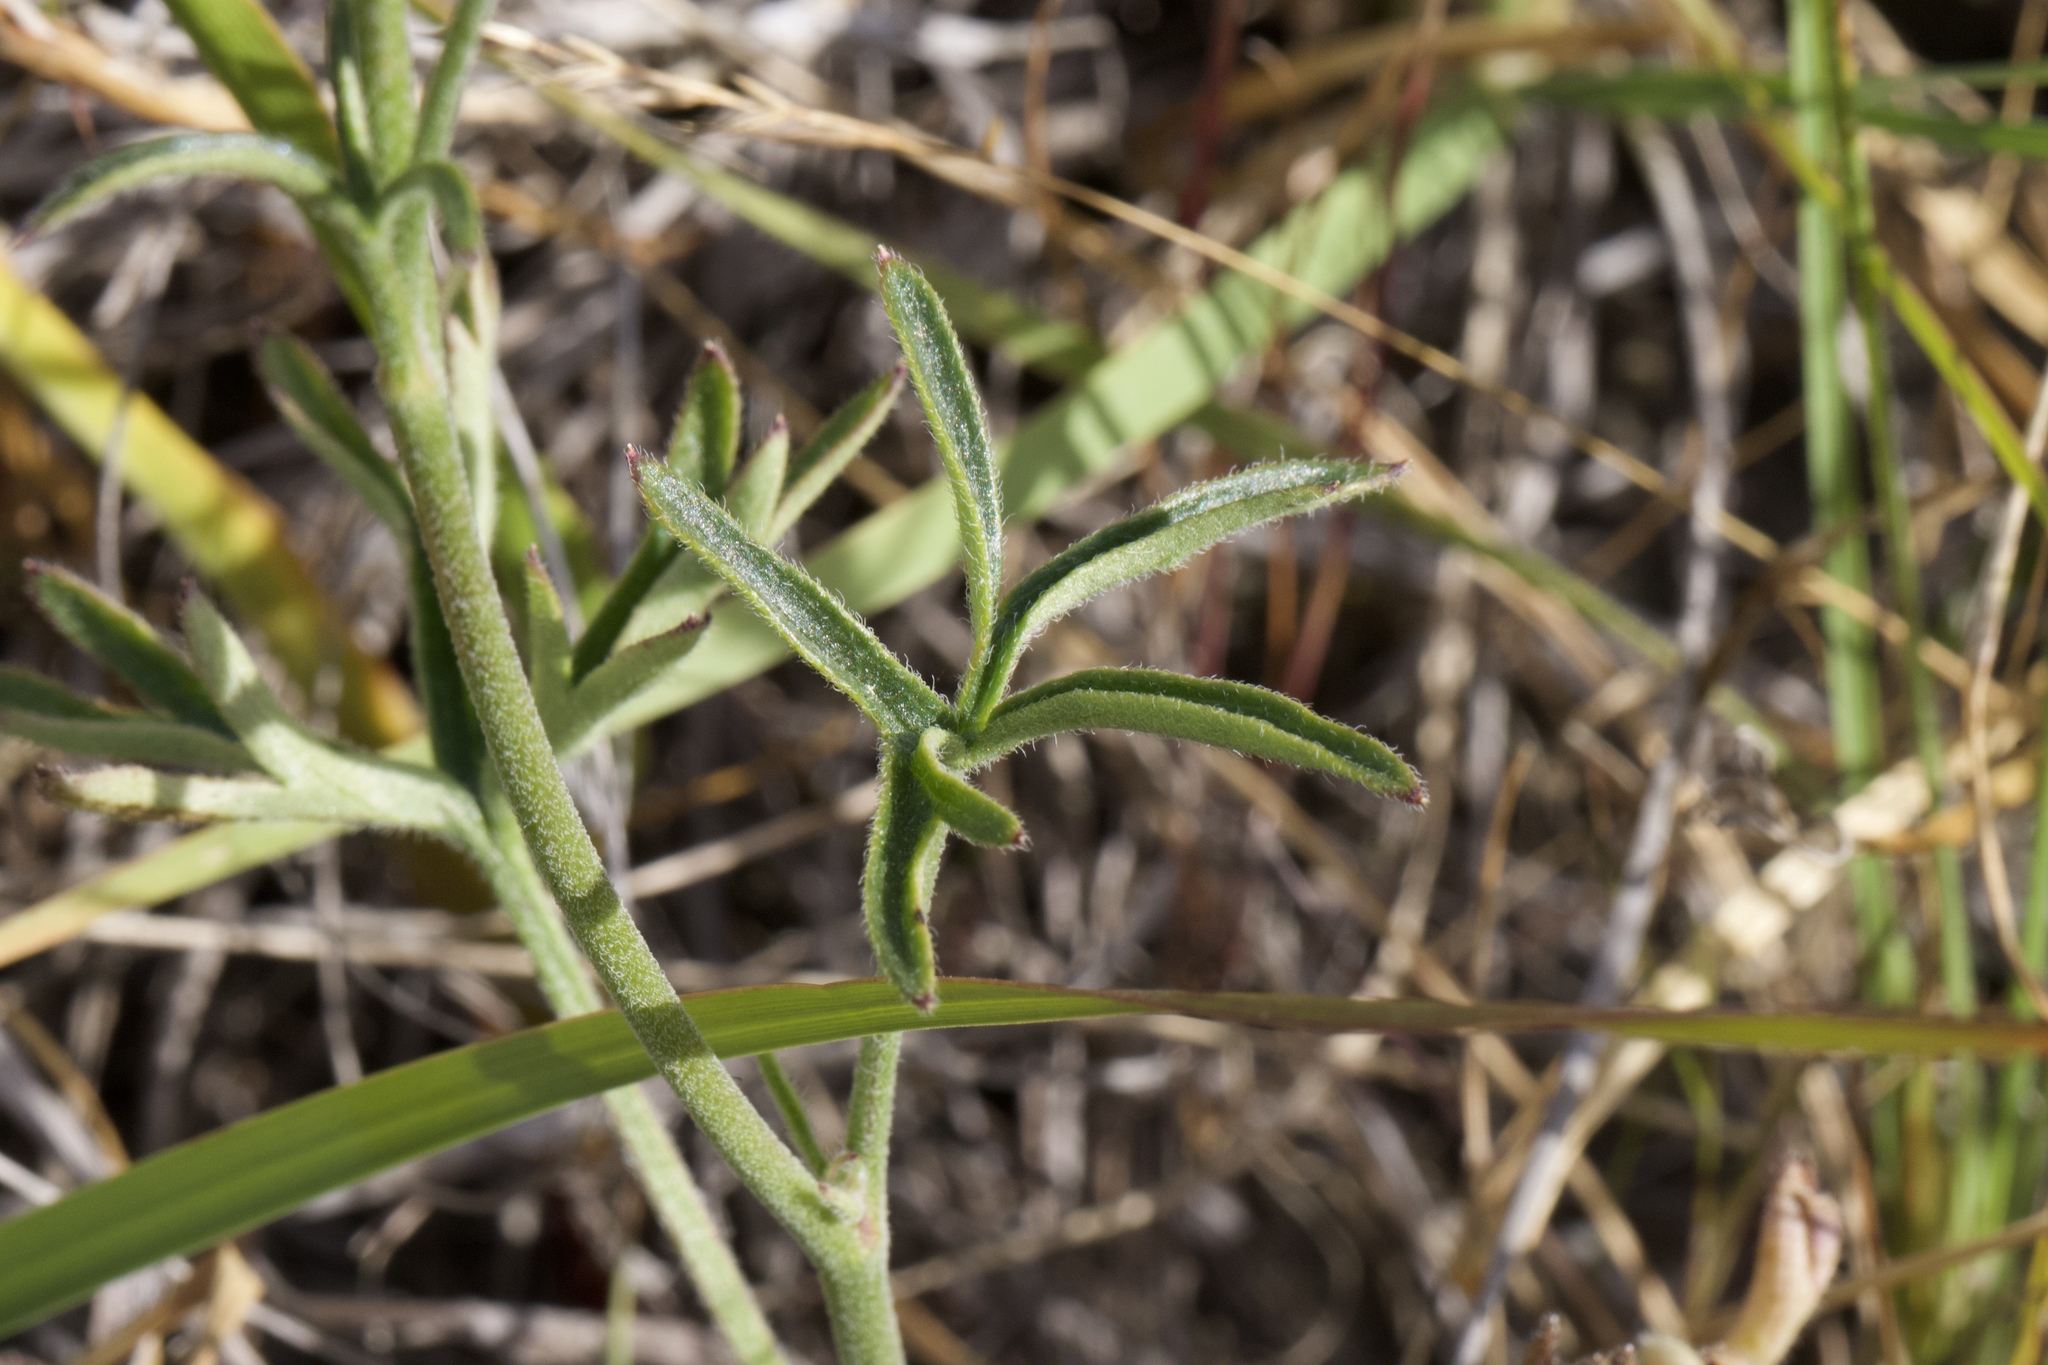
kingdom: Plantae
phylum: Tracheophyta
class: Magnoliopsida
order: Ranunculales
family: Ranunculaceae
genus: Delphinium
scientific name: Delphinium hesperium
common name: Western larkspur
